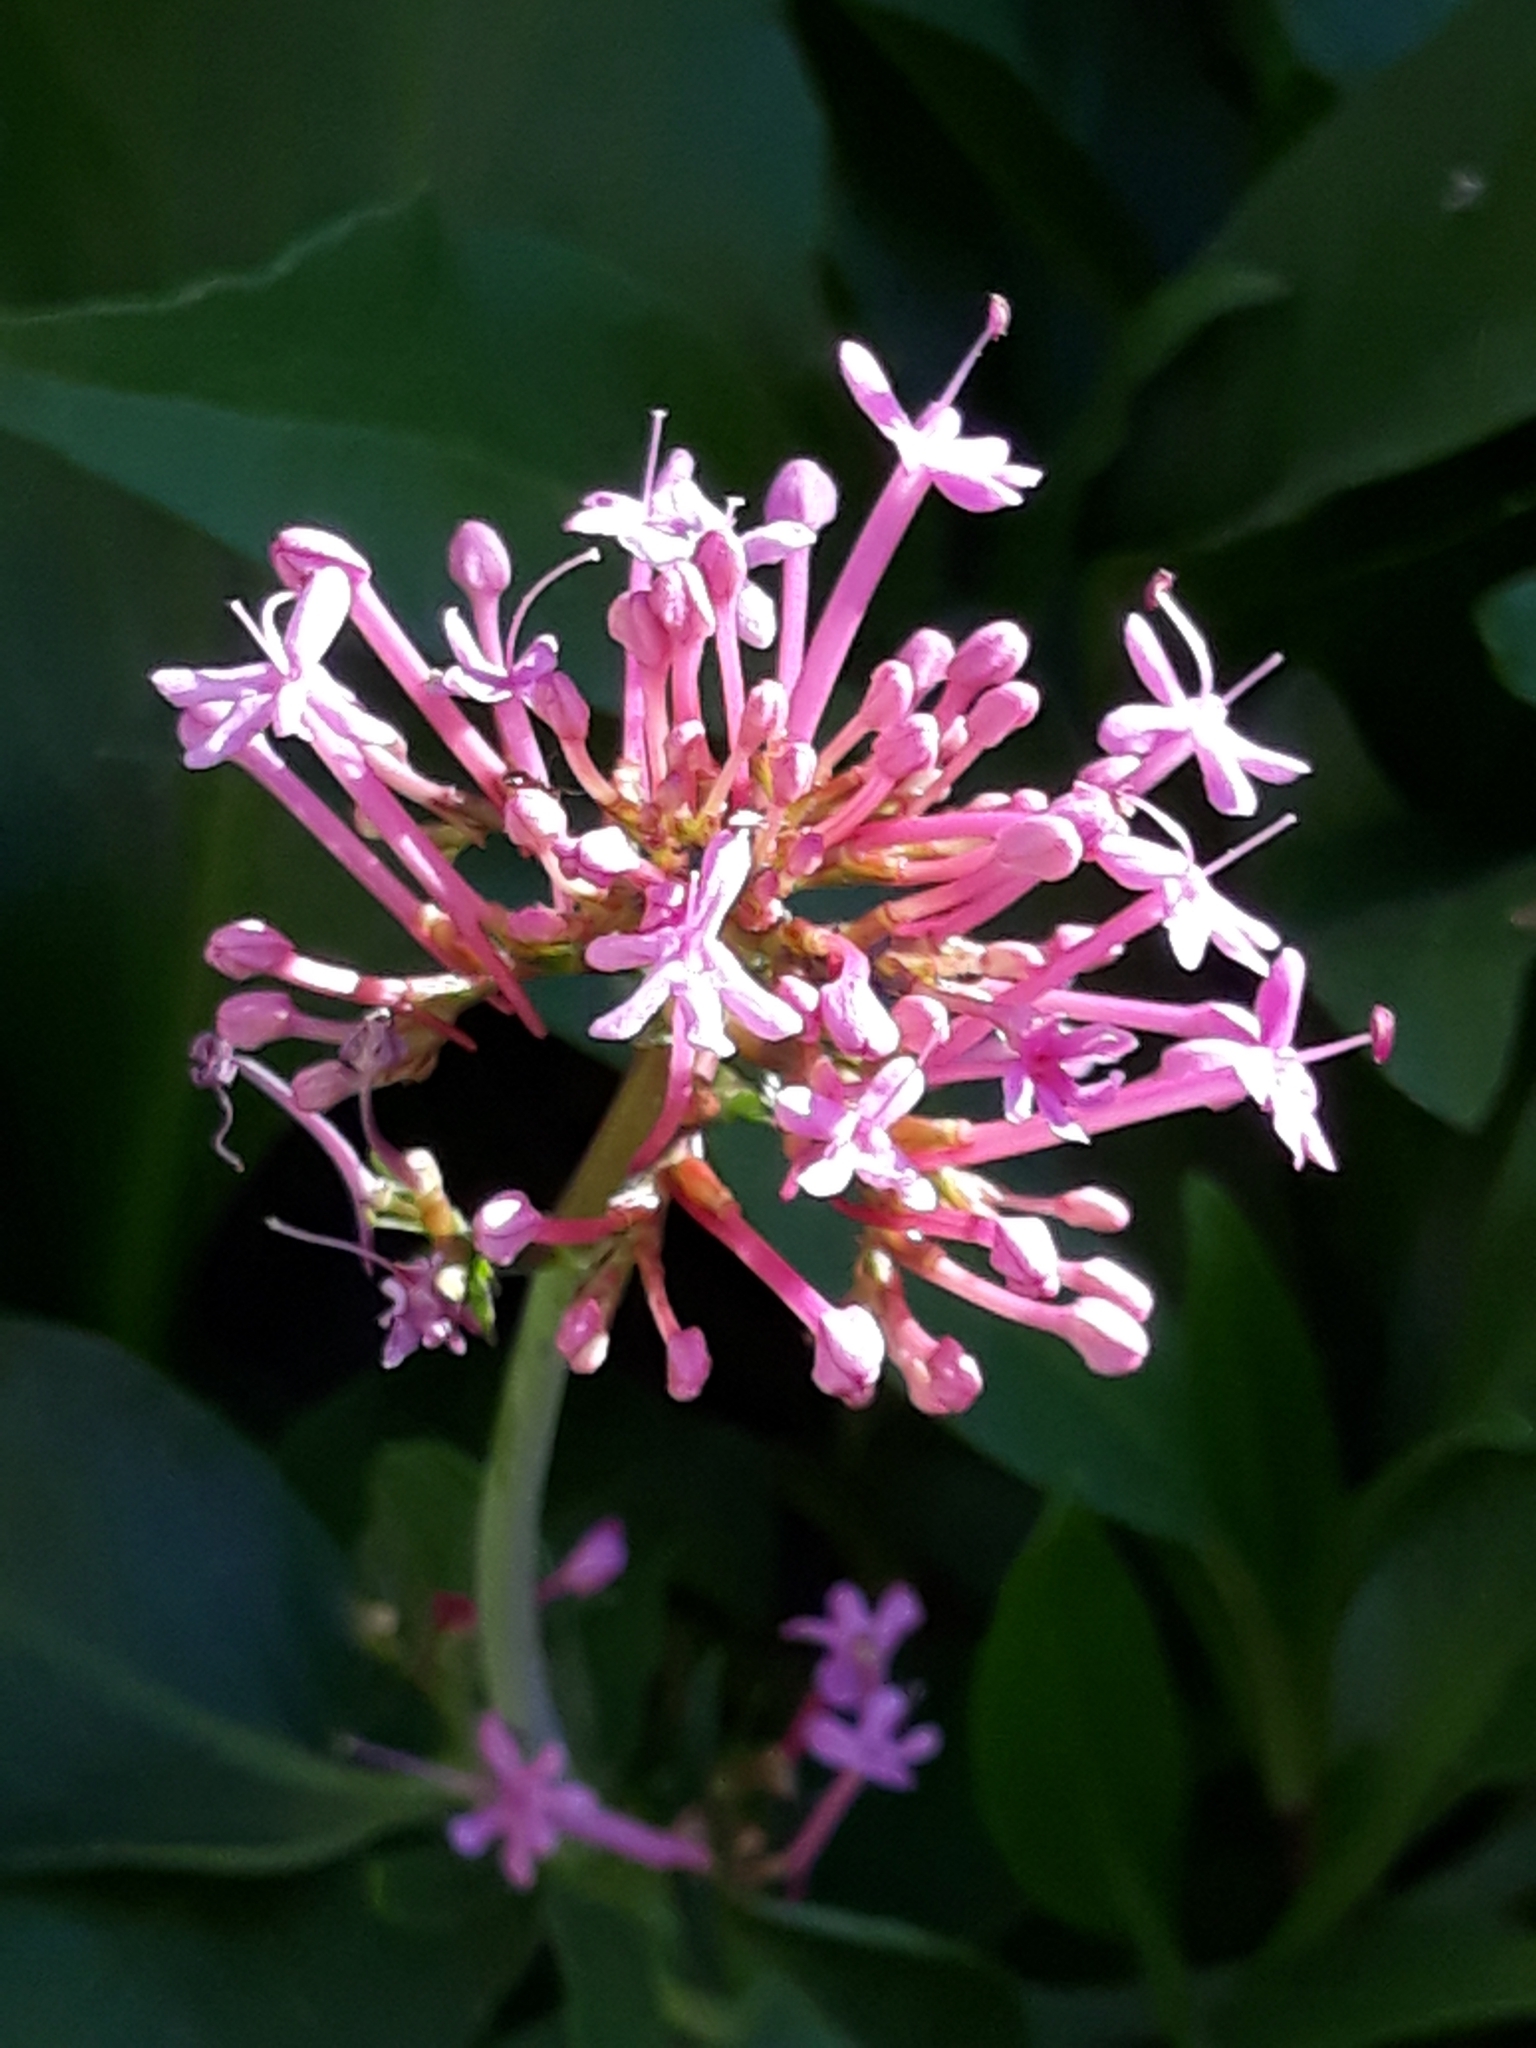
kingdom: Plantae
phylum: Tracheophyta
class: Magnoliopsida
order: Dipsacales
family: Caprifoliaceae
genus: Centranthus
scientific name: Centranthus ruber
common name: Red valerian
